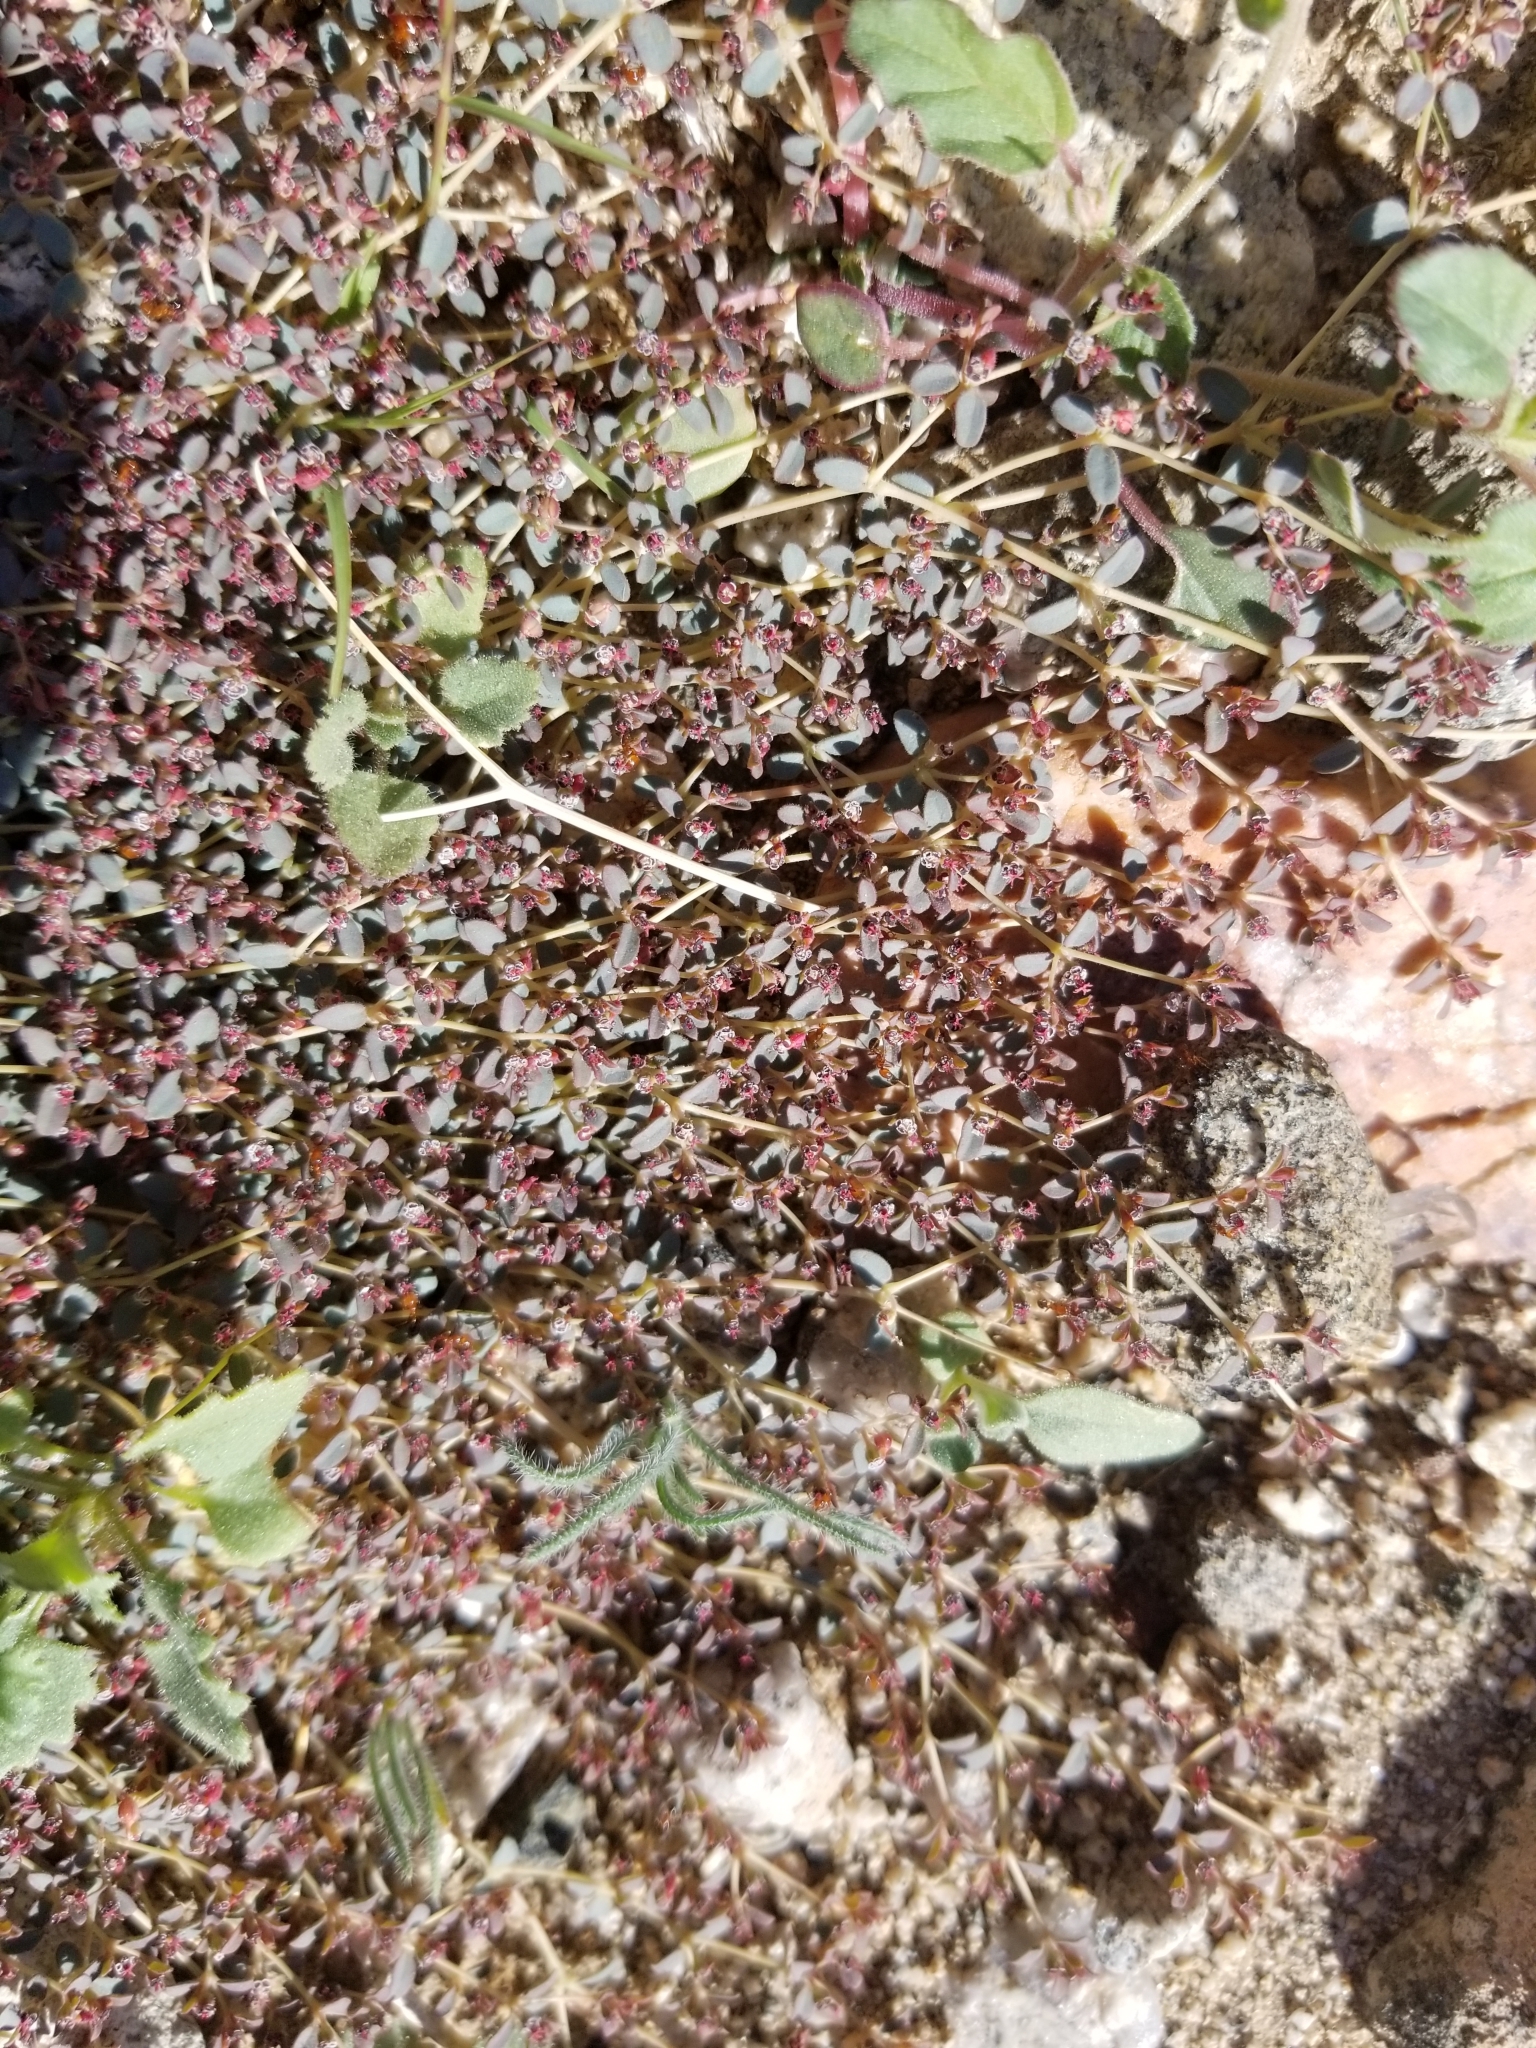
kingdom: Plantae
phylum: Tracheophyta
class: Magnoliopsida
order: Malpighiales
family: Euphorbiaceae
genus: Euphorbia
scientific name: Euphorbia polycarpa
